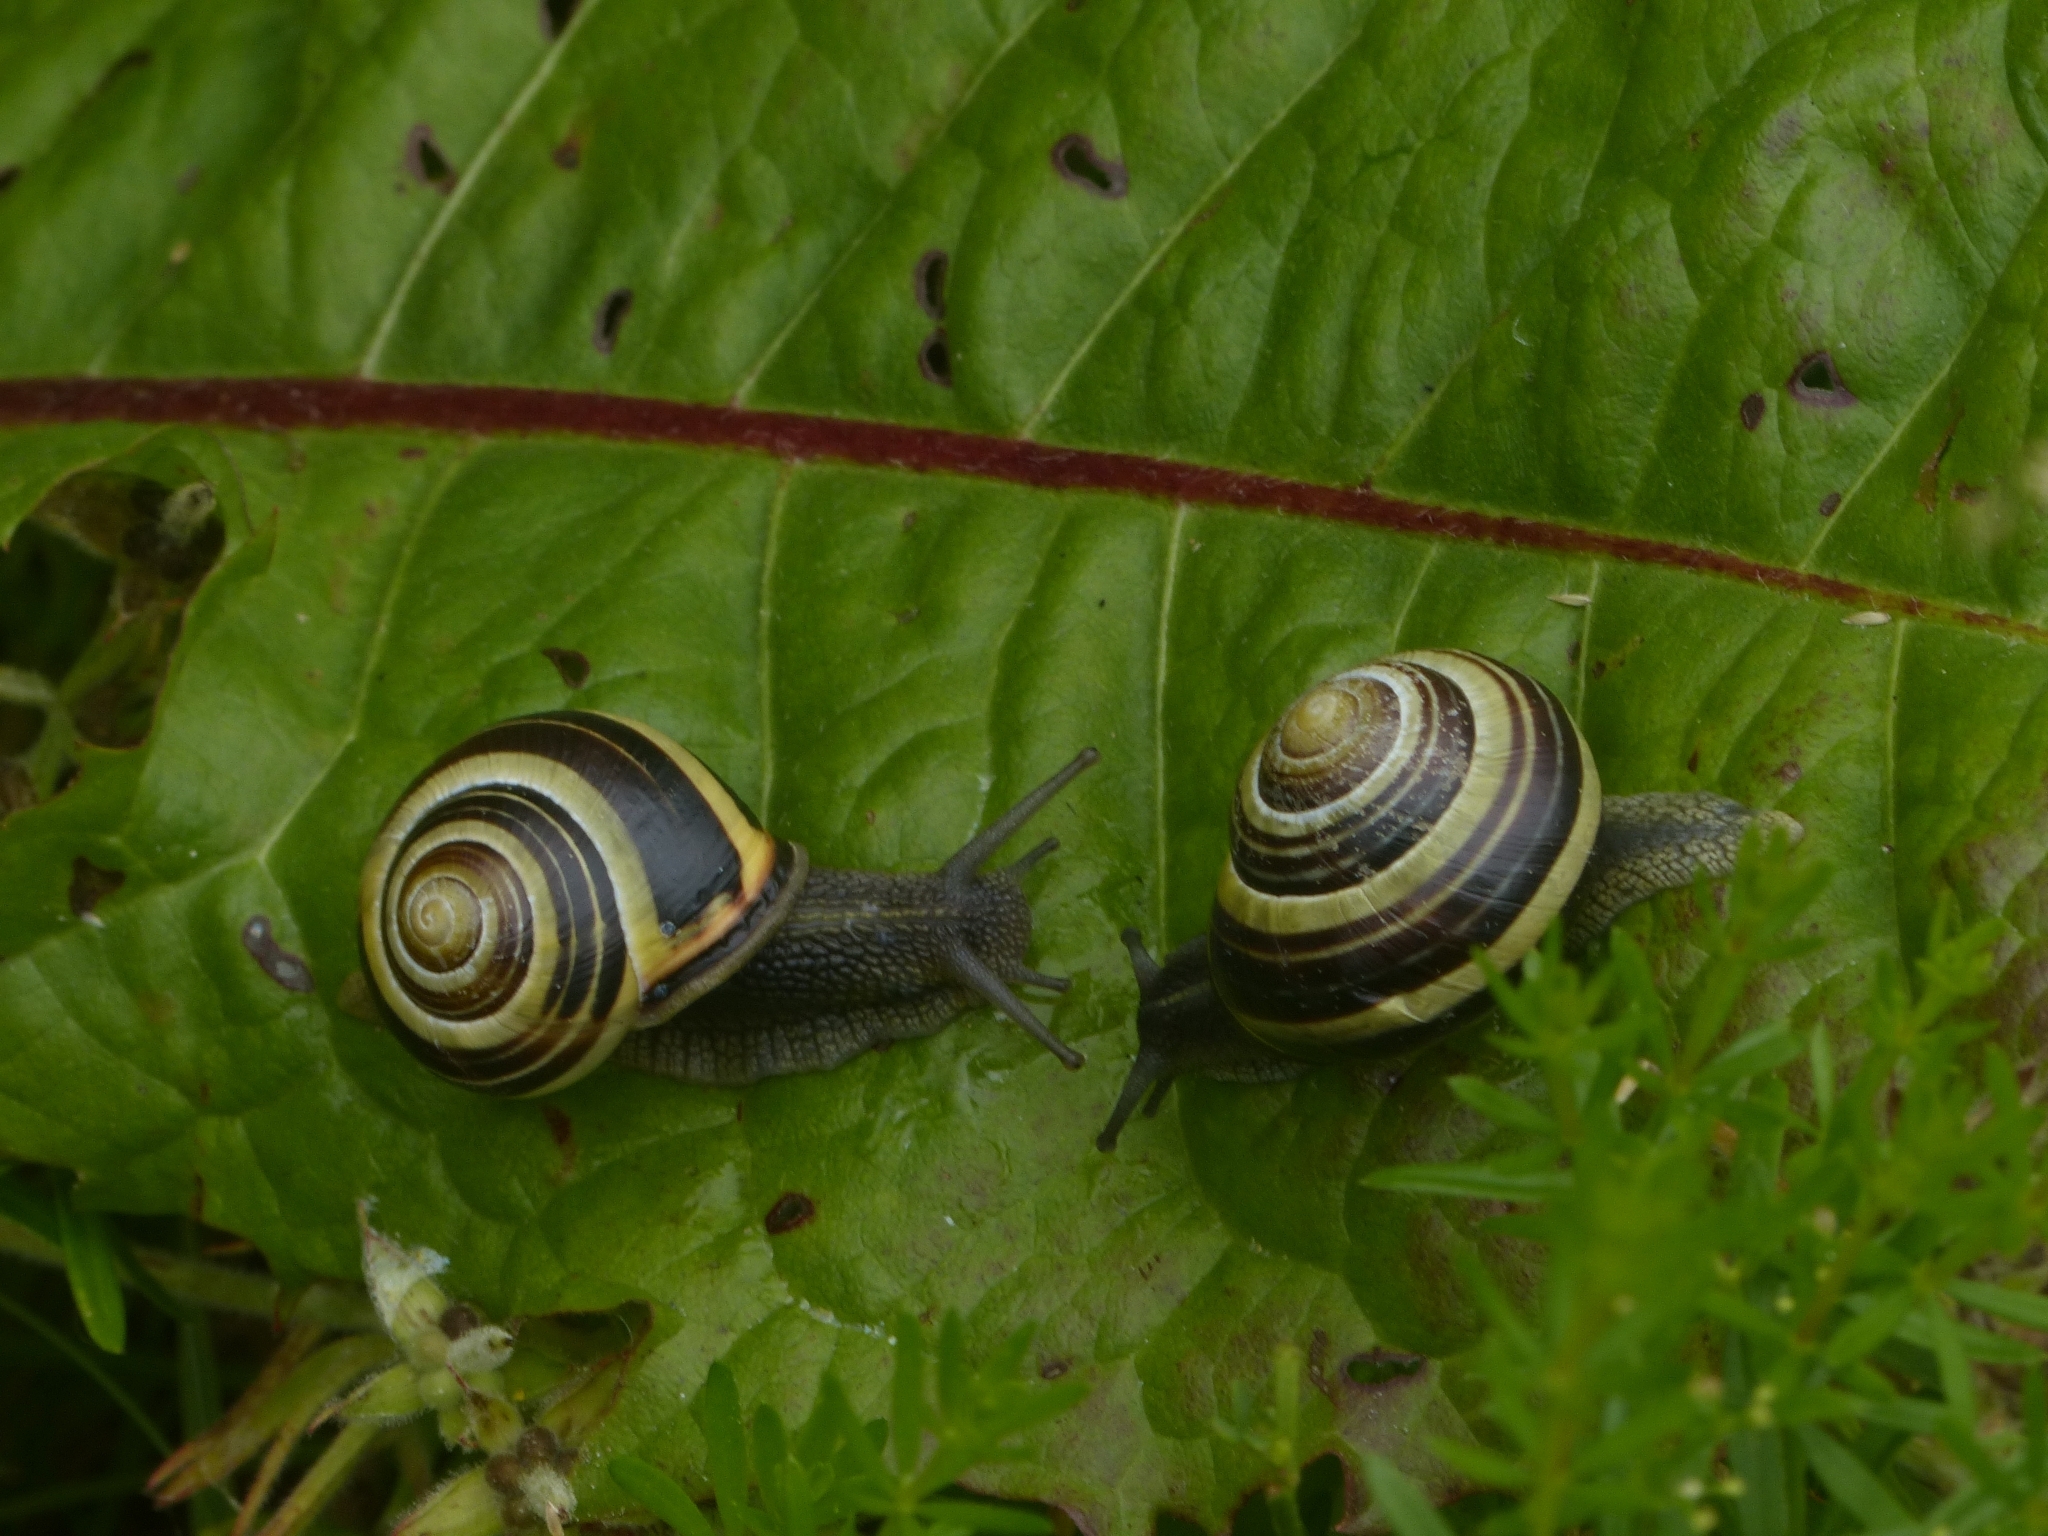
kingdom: Animalia
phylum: Mollusca
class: Gastropoda
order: Stylommatophora
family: Helicidae
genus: Cepaea
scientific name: Cepaea nemoralis
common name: Grovesnail
